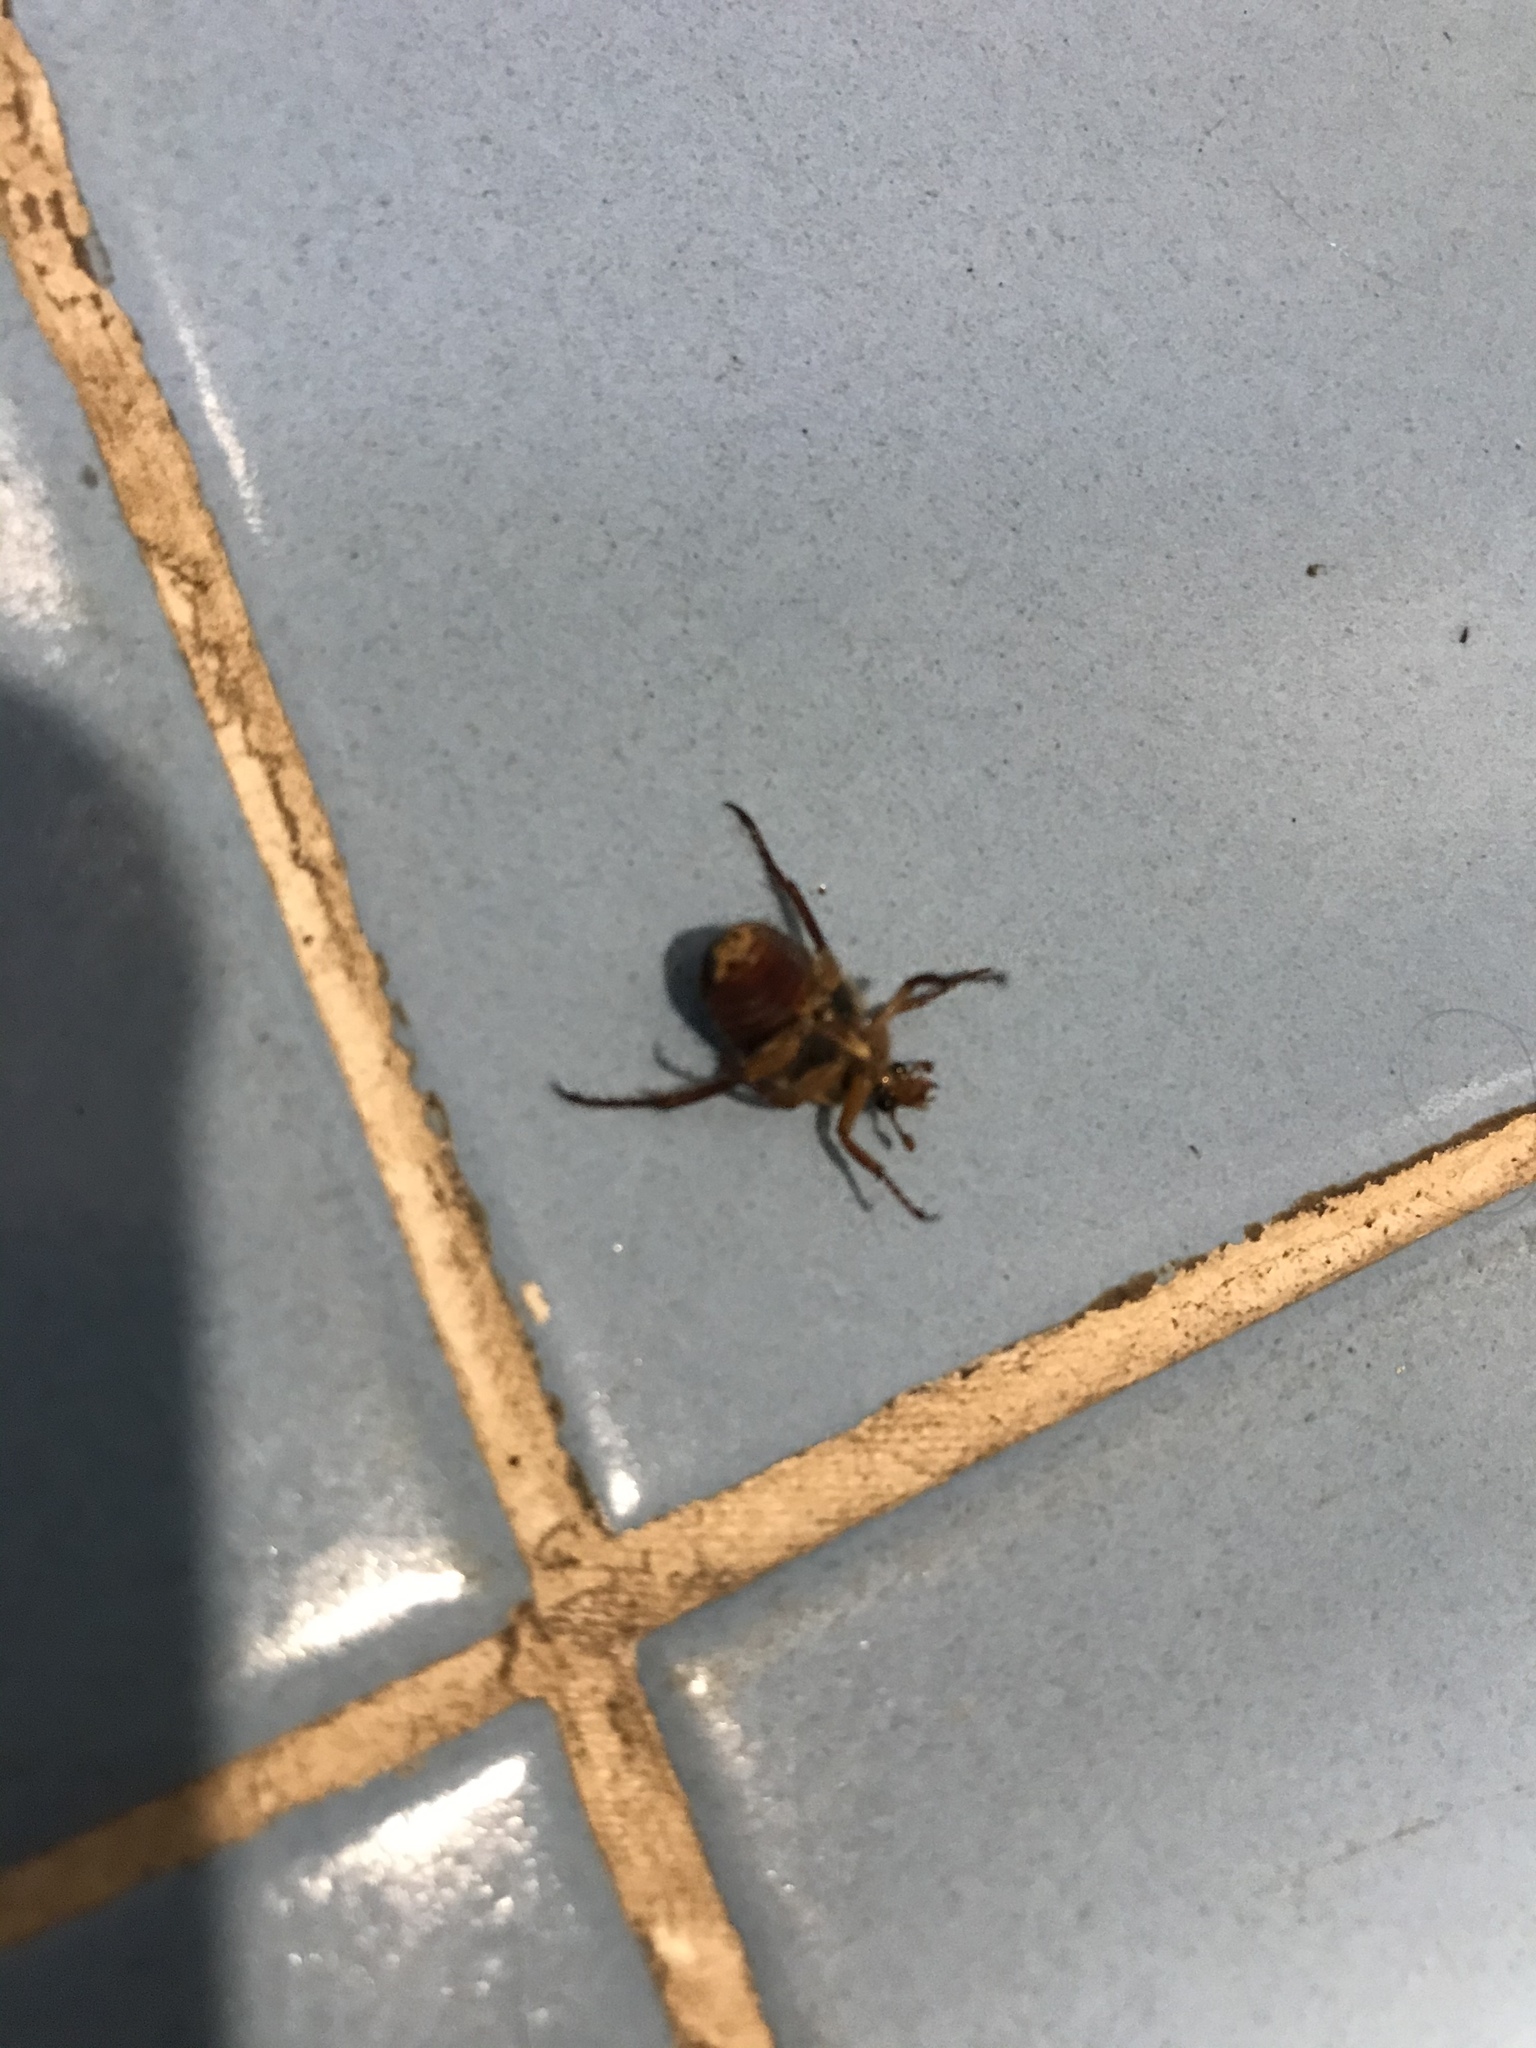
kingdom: Animalia
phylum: Arthropoda
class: Insecta
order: Coleoptera
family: Scarabaeidae
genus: Neorrhina
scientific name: Neorrhina punctatum
